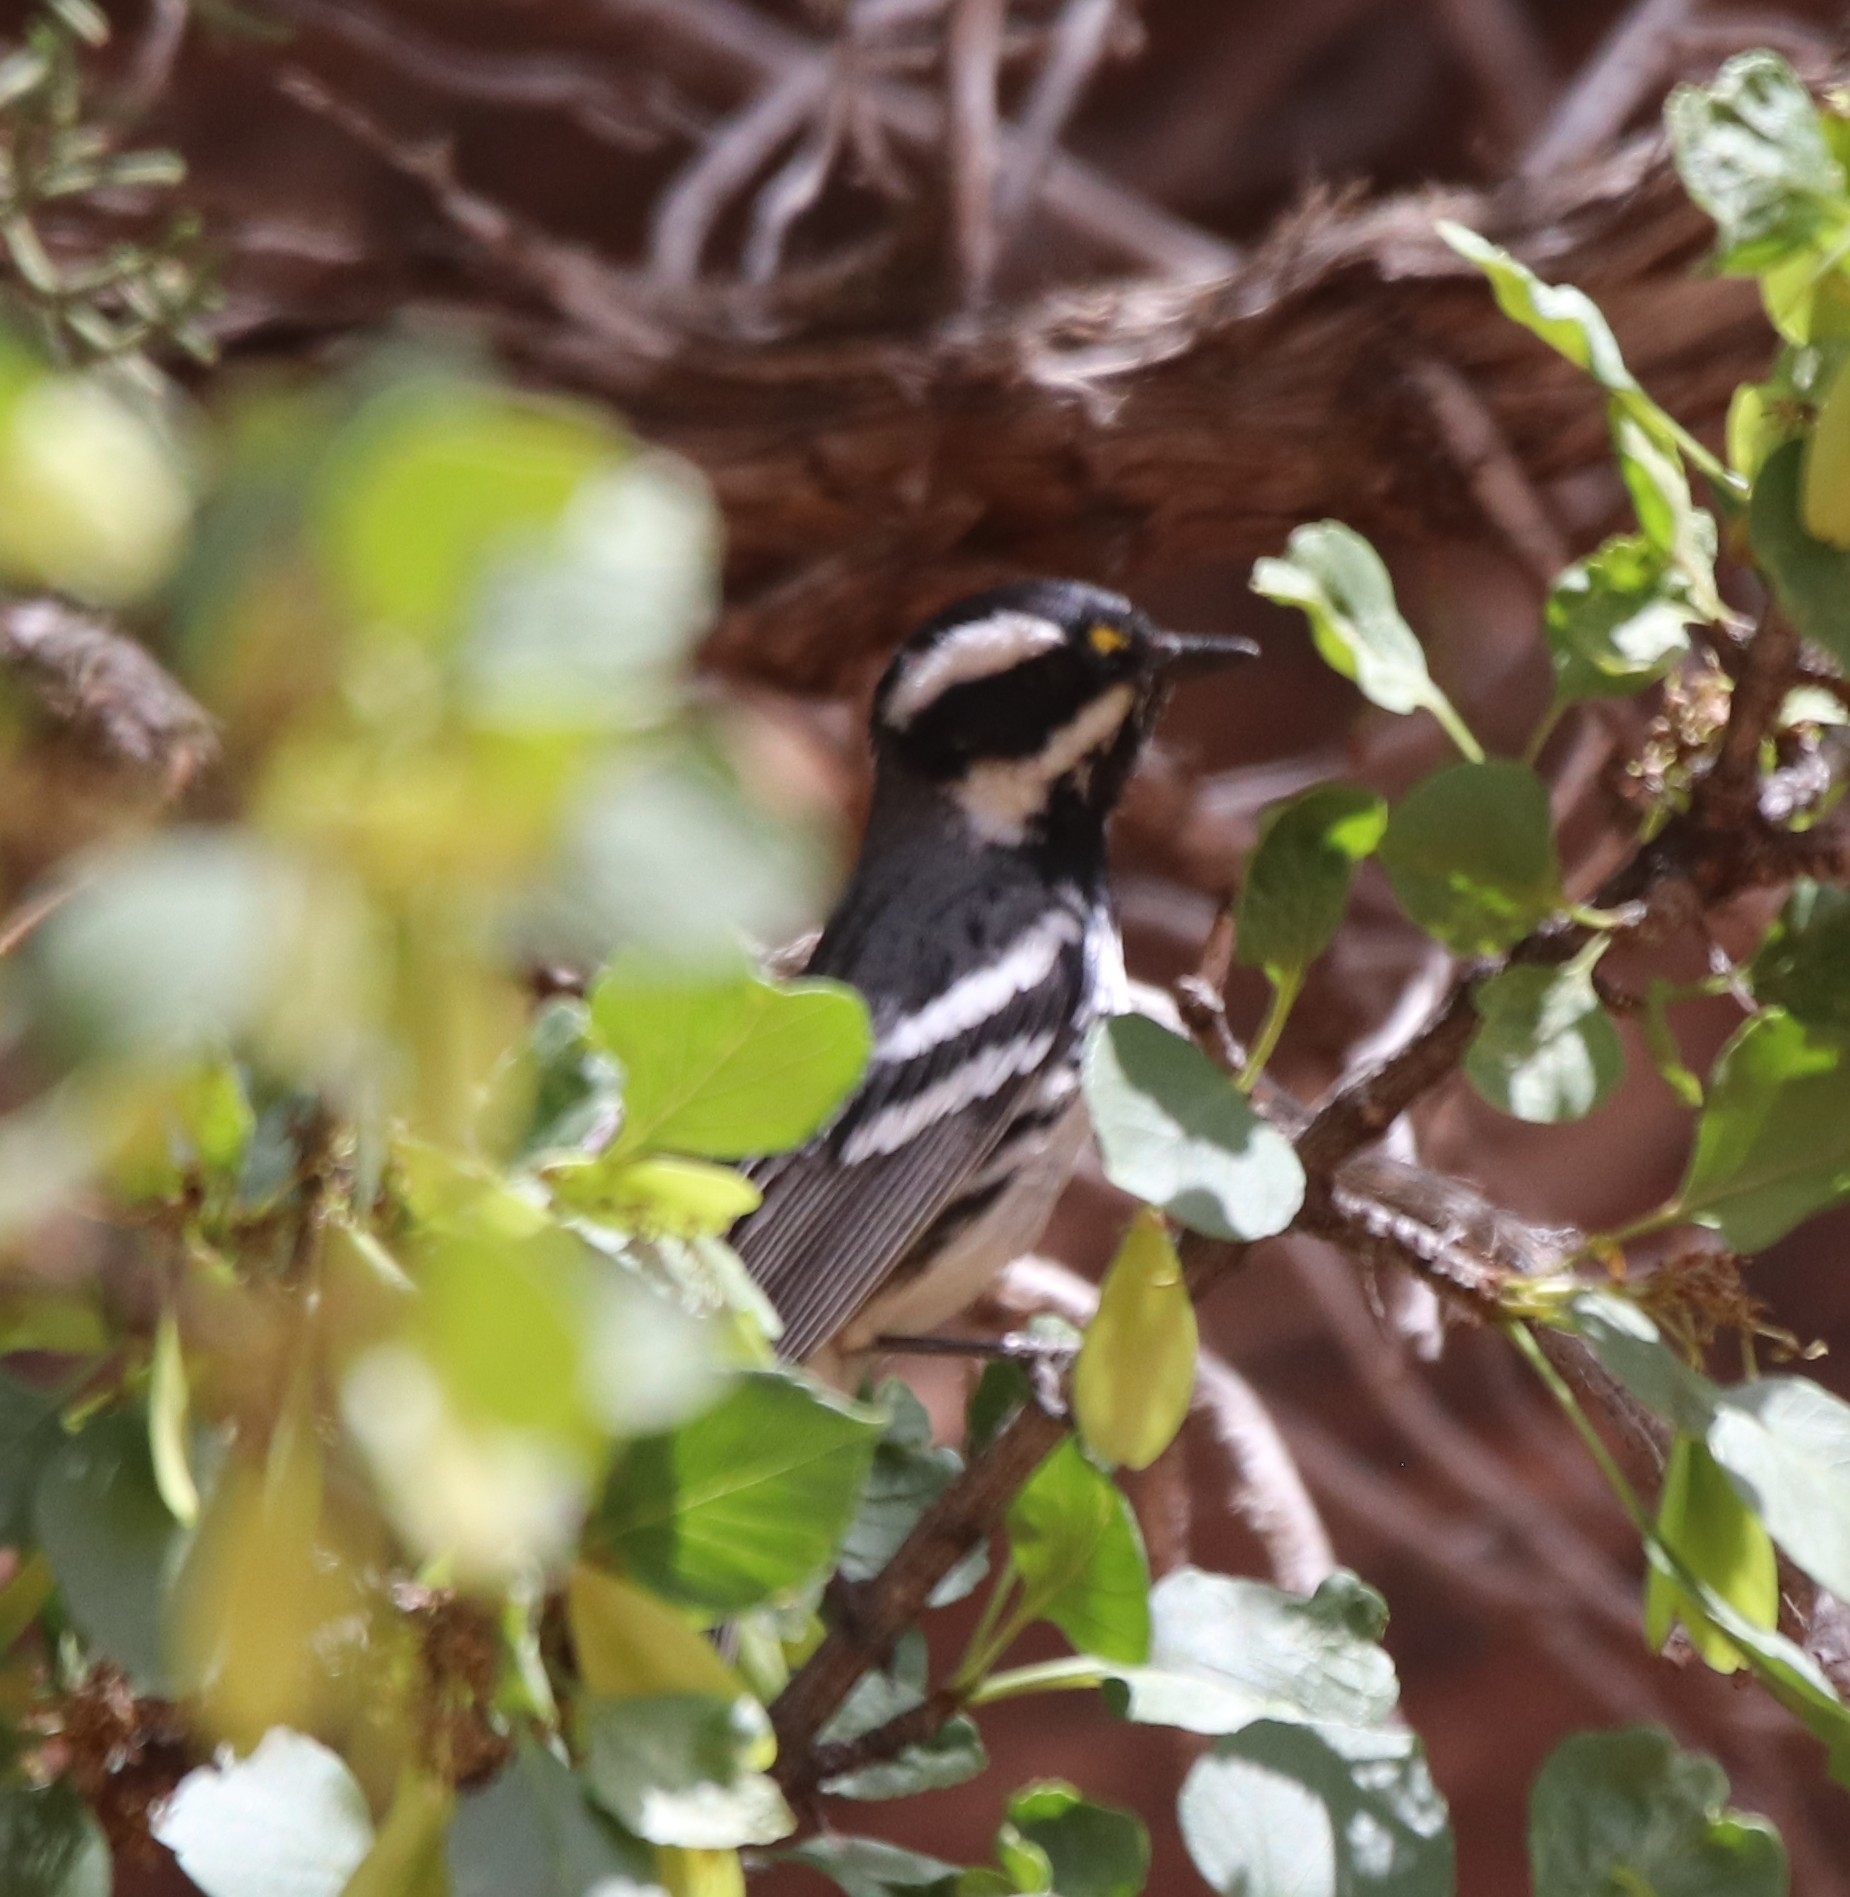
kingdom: Animalia
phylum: Chordata
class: Aves
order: Passeriformes
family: Parulidae
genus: Setophaga
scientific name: Setophaga nigrescens
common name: Black-throated gray warbler
